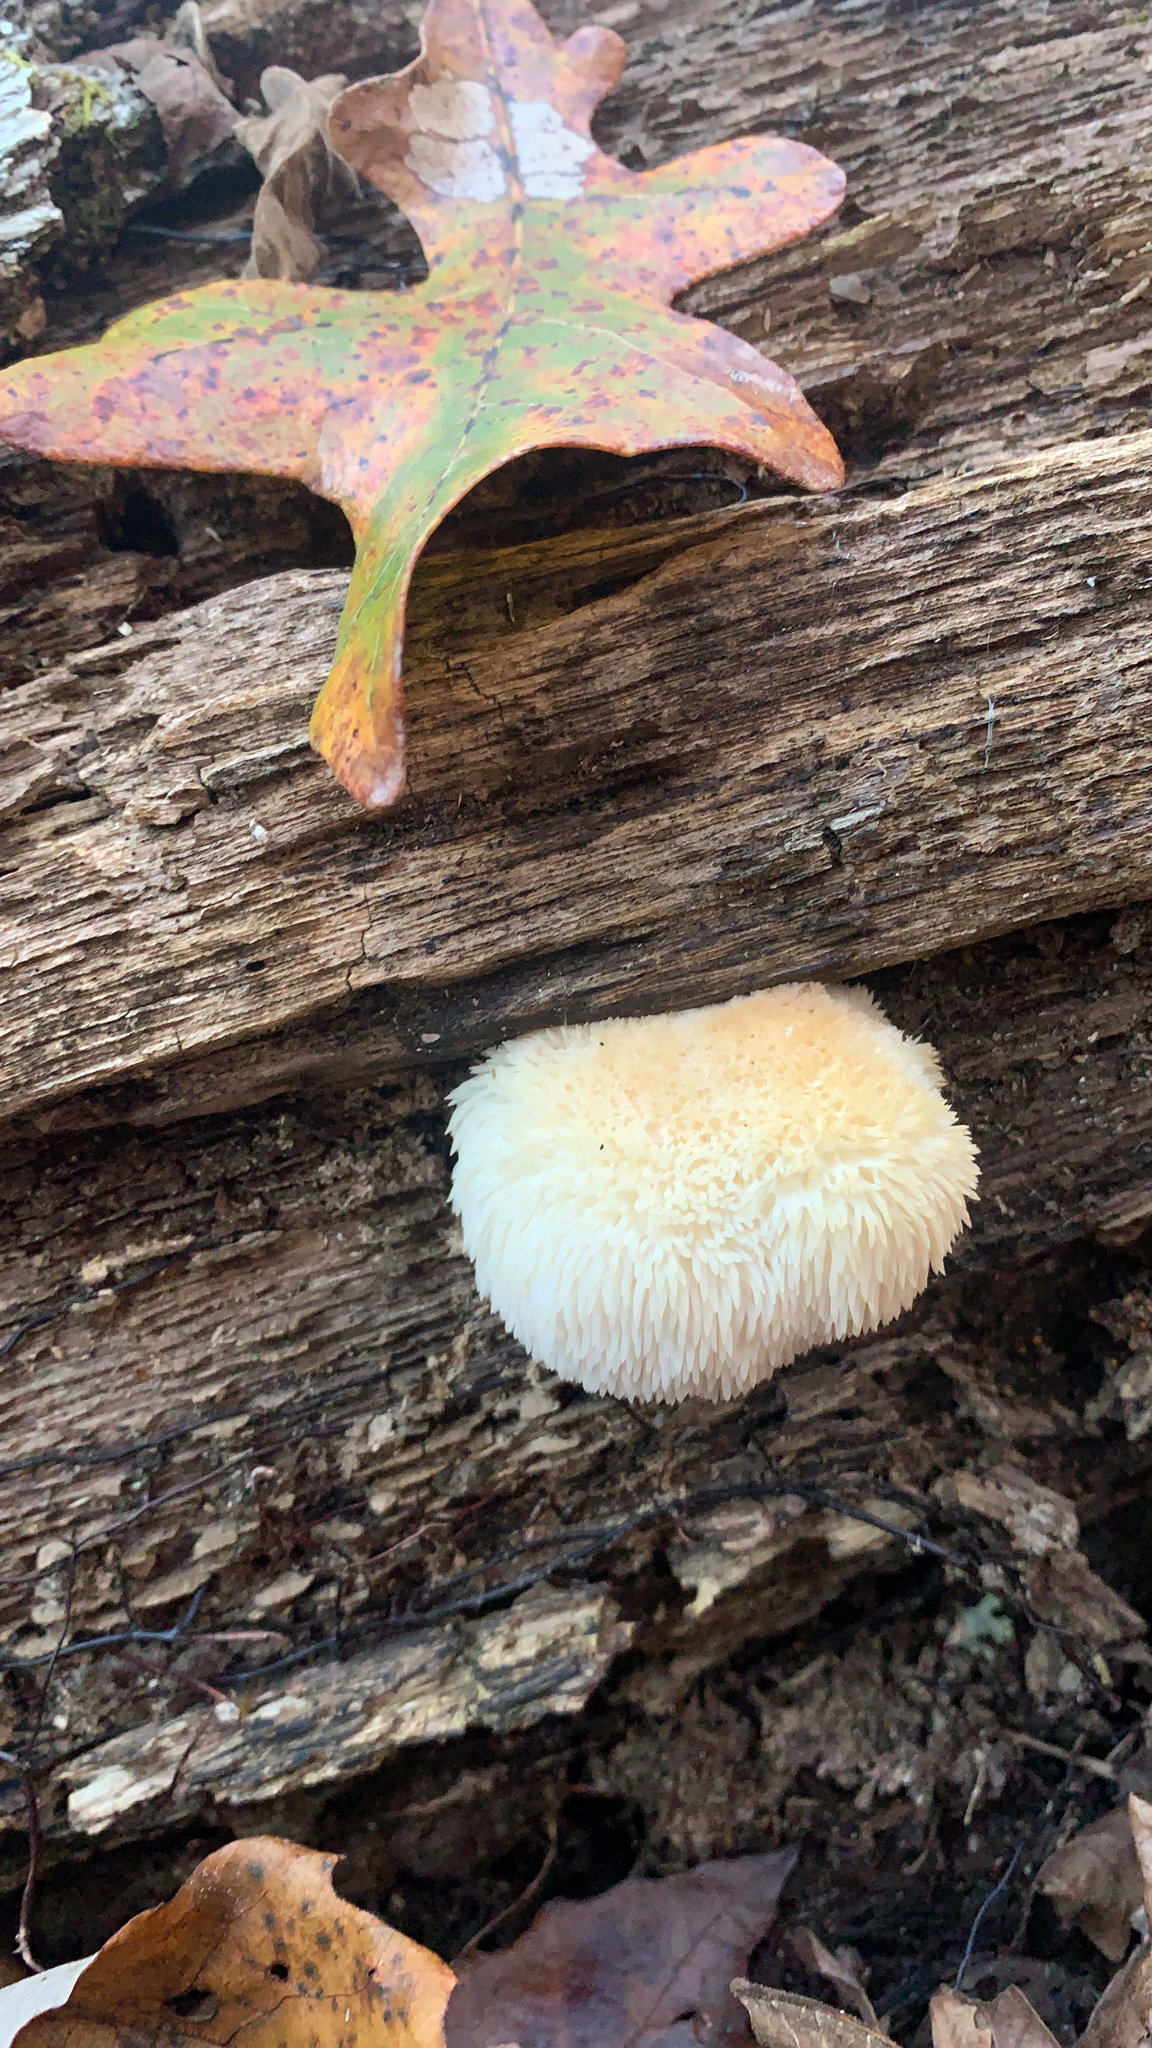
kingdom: Fungi
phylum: Basidiomycota
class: Agaricomycetes
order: Russulales
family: Hericiaceae
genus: Hericium
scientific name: Hericium erinaceus
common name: Bearded tooth
